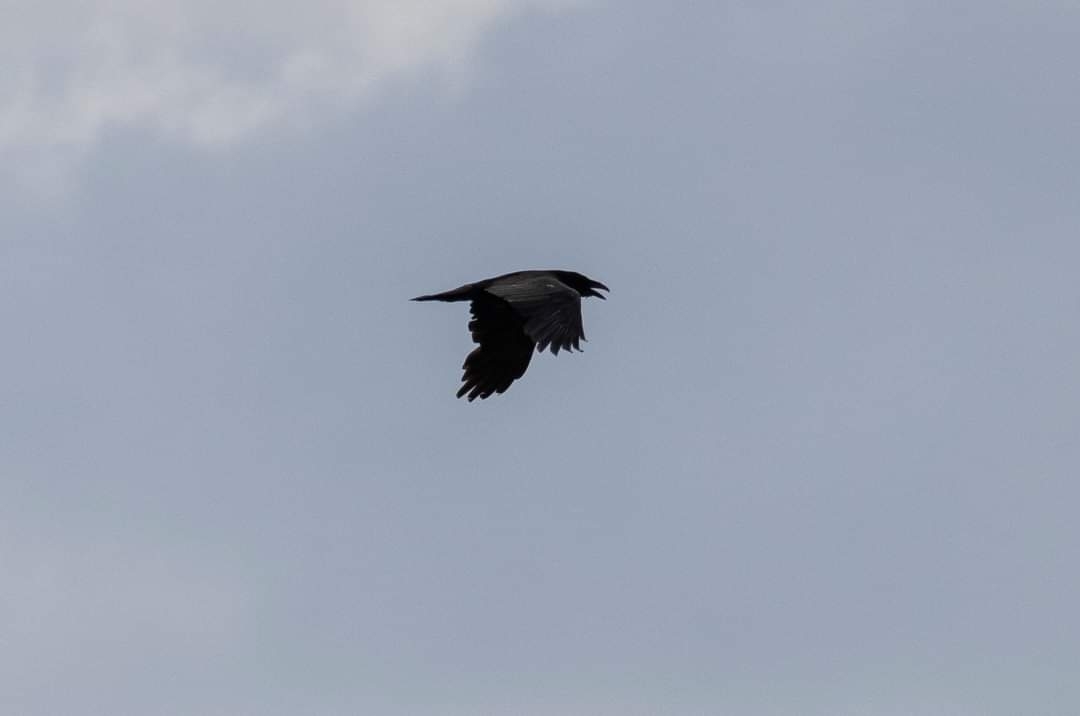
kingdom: Animalia
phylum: Chordata
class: Aves
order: Passeriformes
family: Corvidae
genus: Corvus
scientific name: Corvus corax
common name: Common raven
